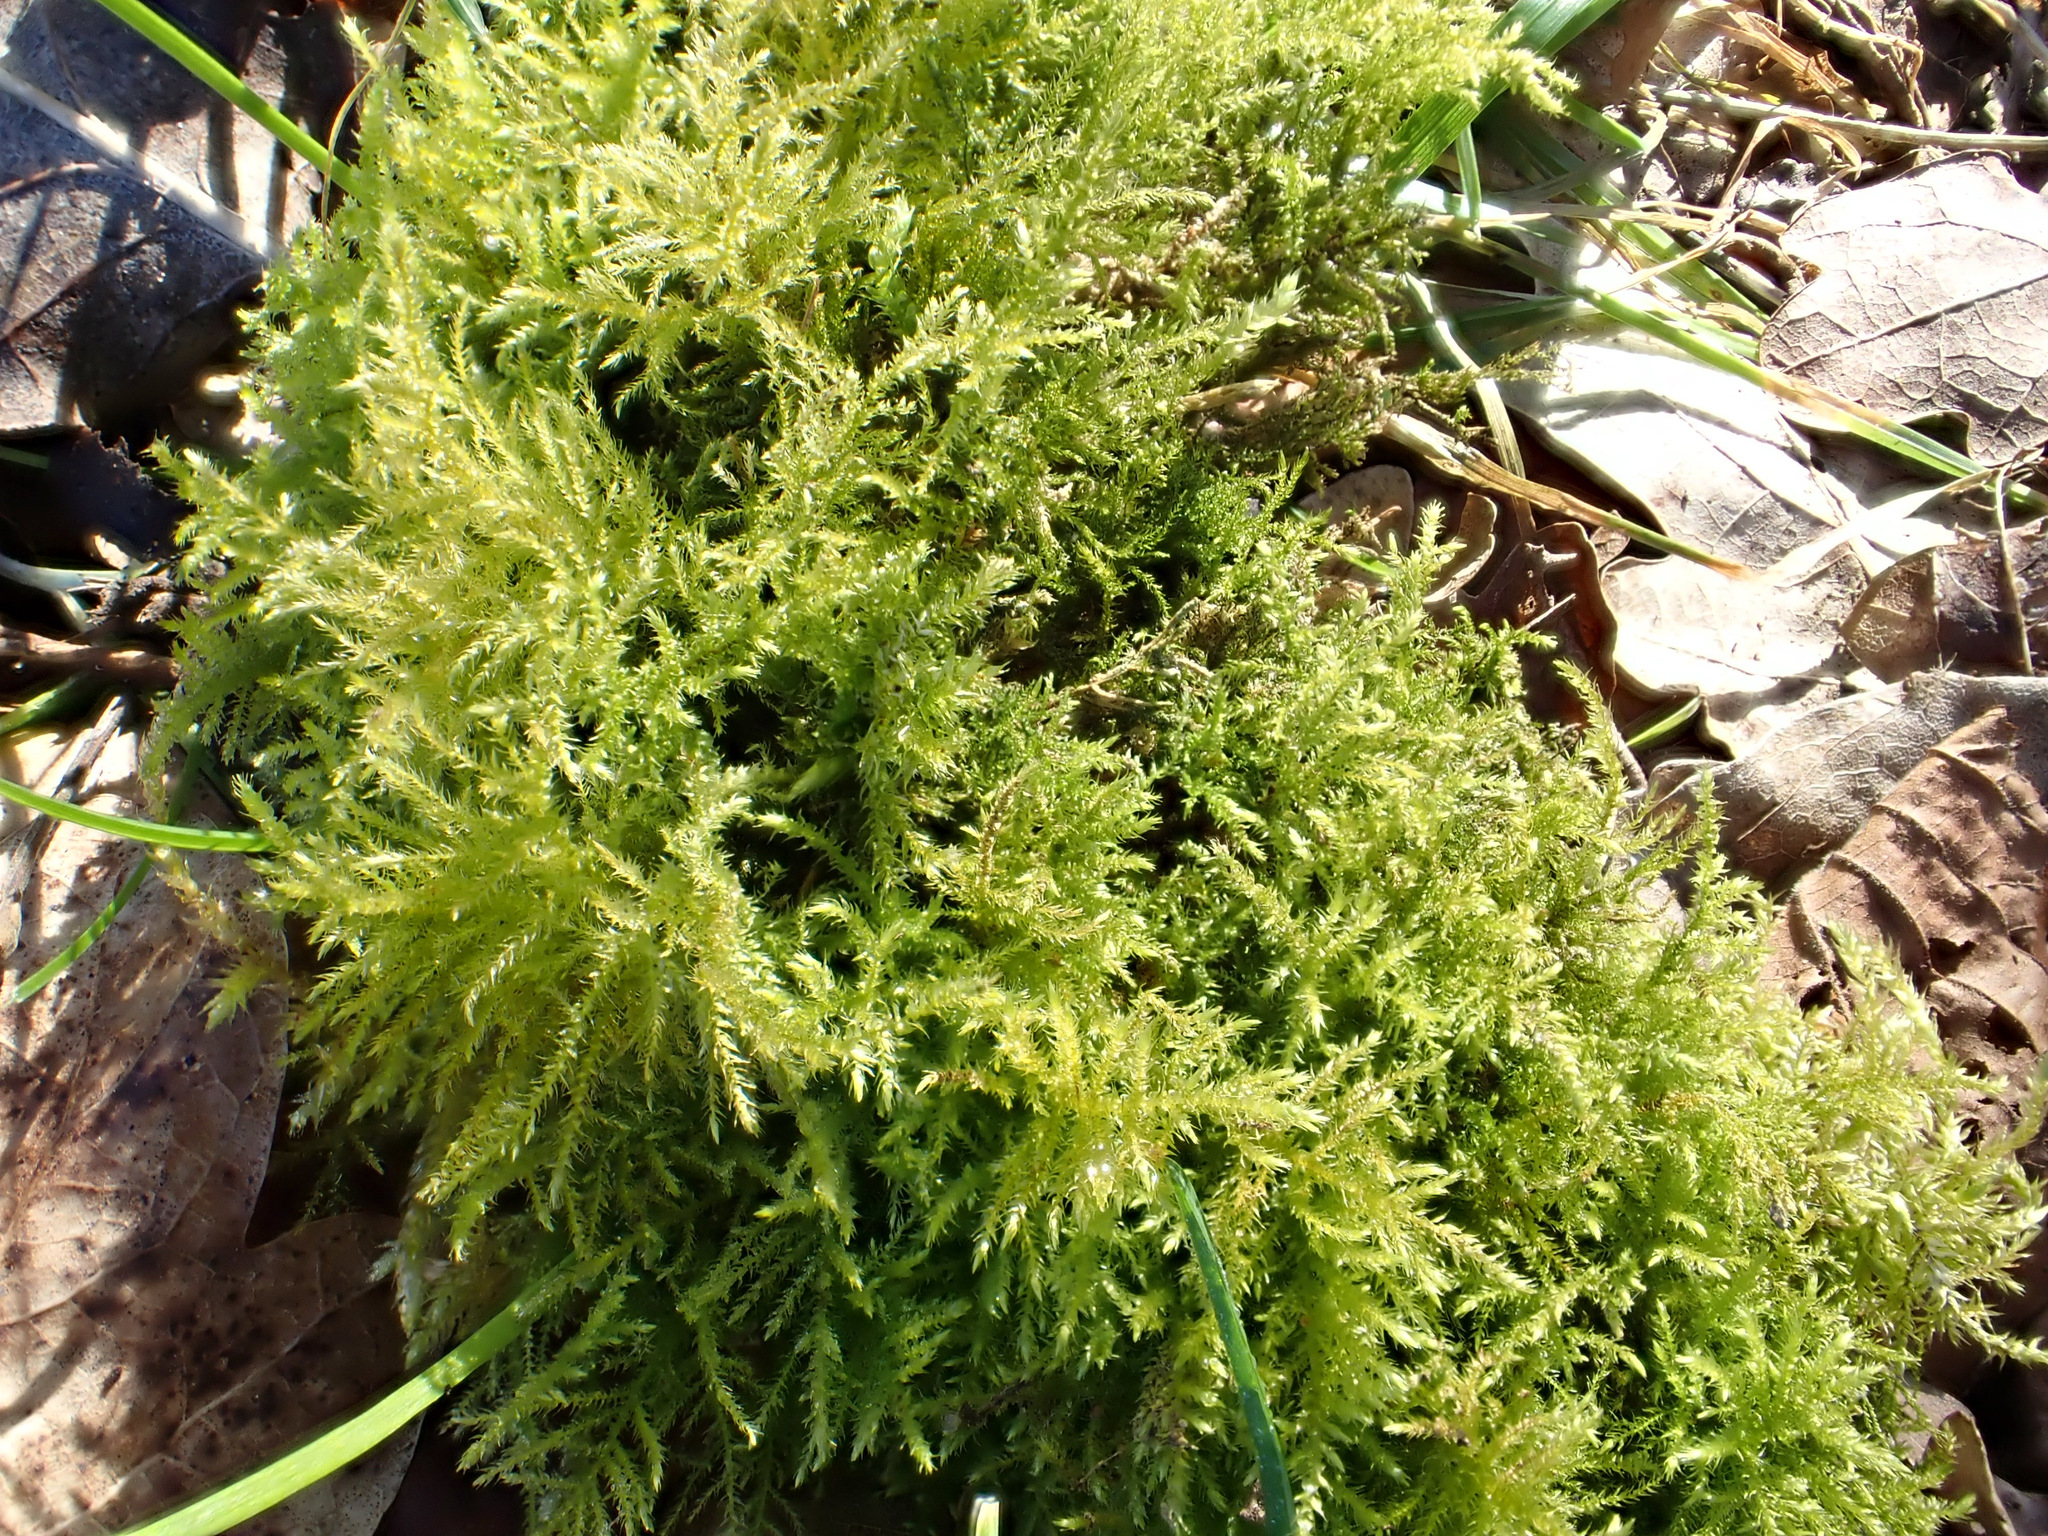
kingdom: Plantae
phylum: Bryophyta
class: Bryopsida
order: Hypnales
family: Brachytheciaceae
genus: Kindbergia
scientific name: Kindbergia praelonga
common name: Slender beaked moss
